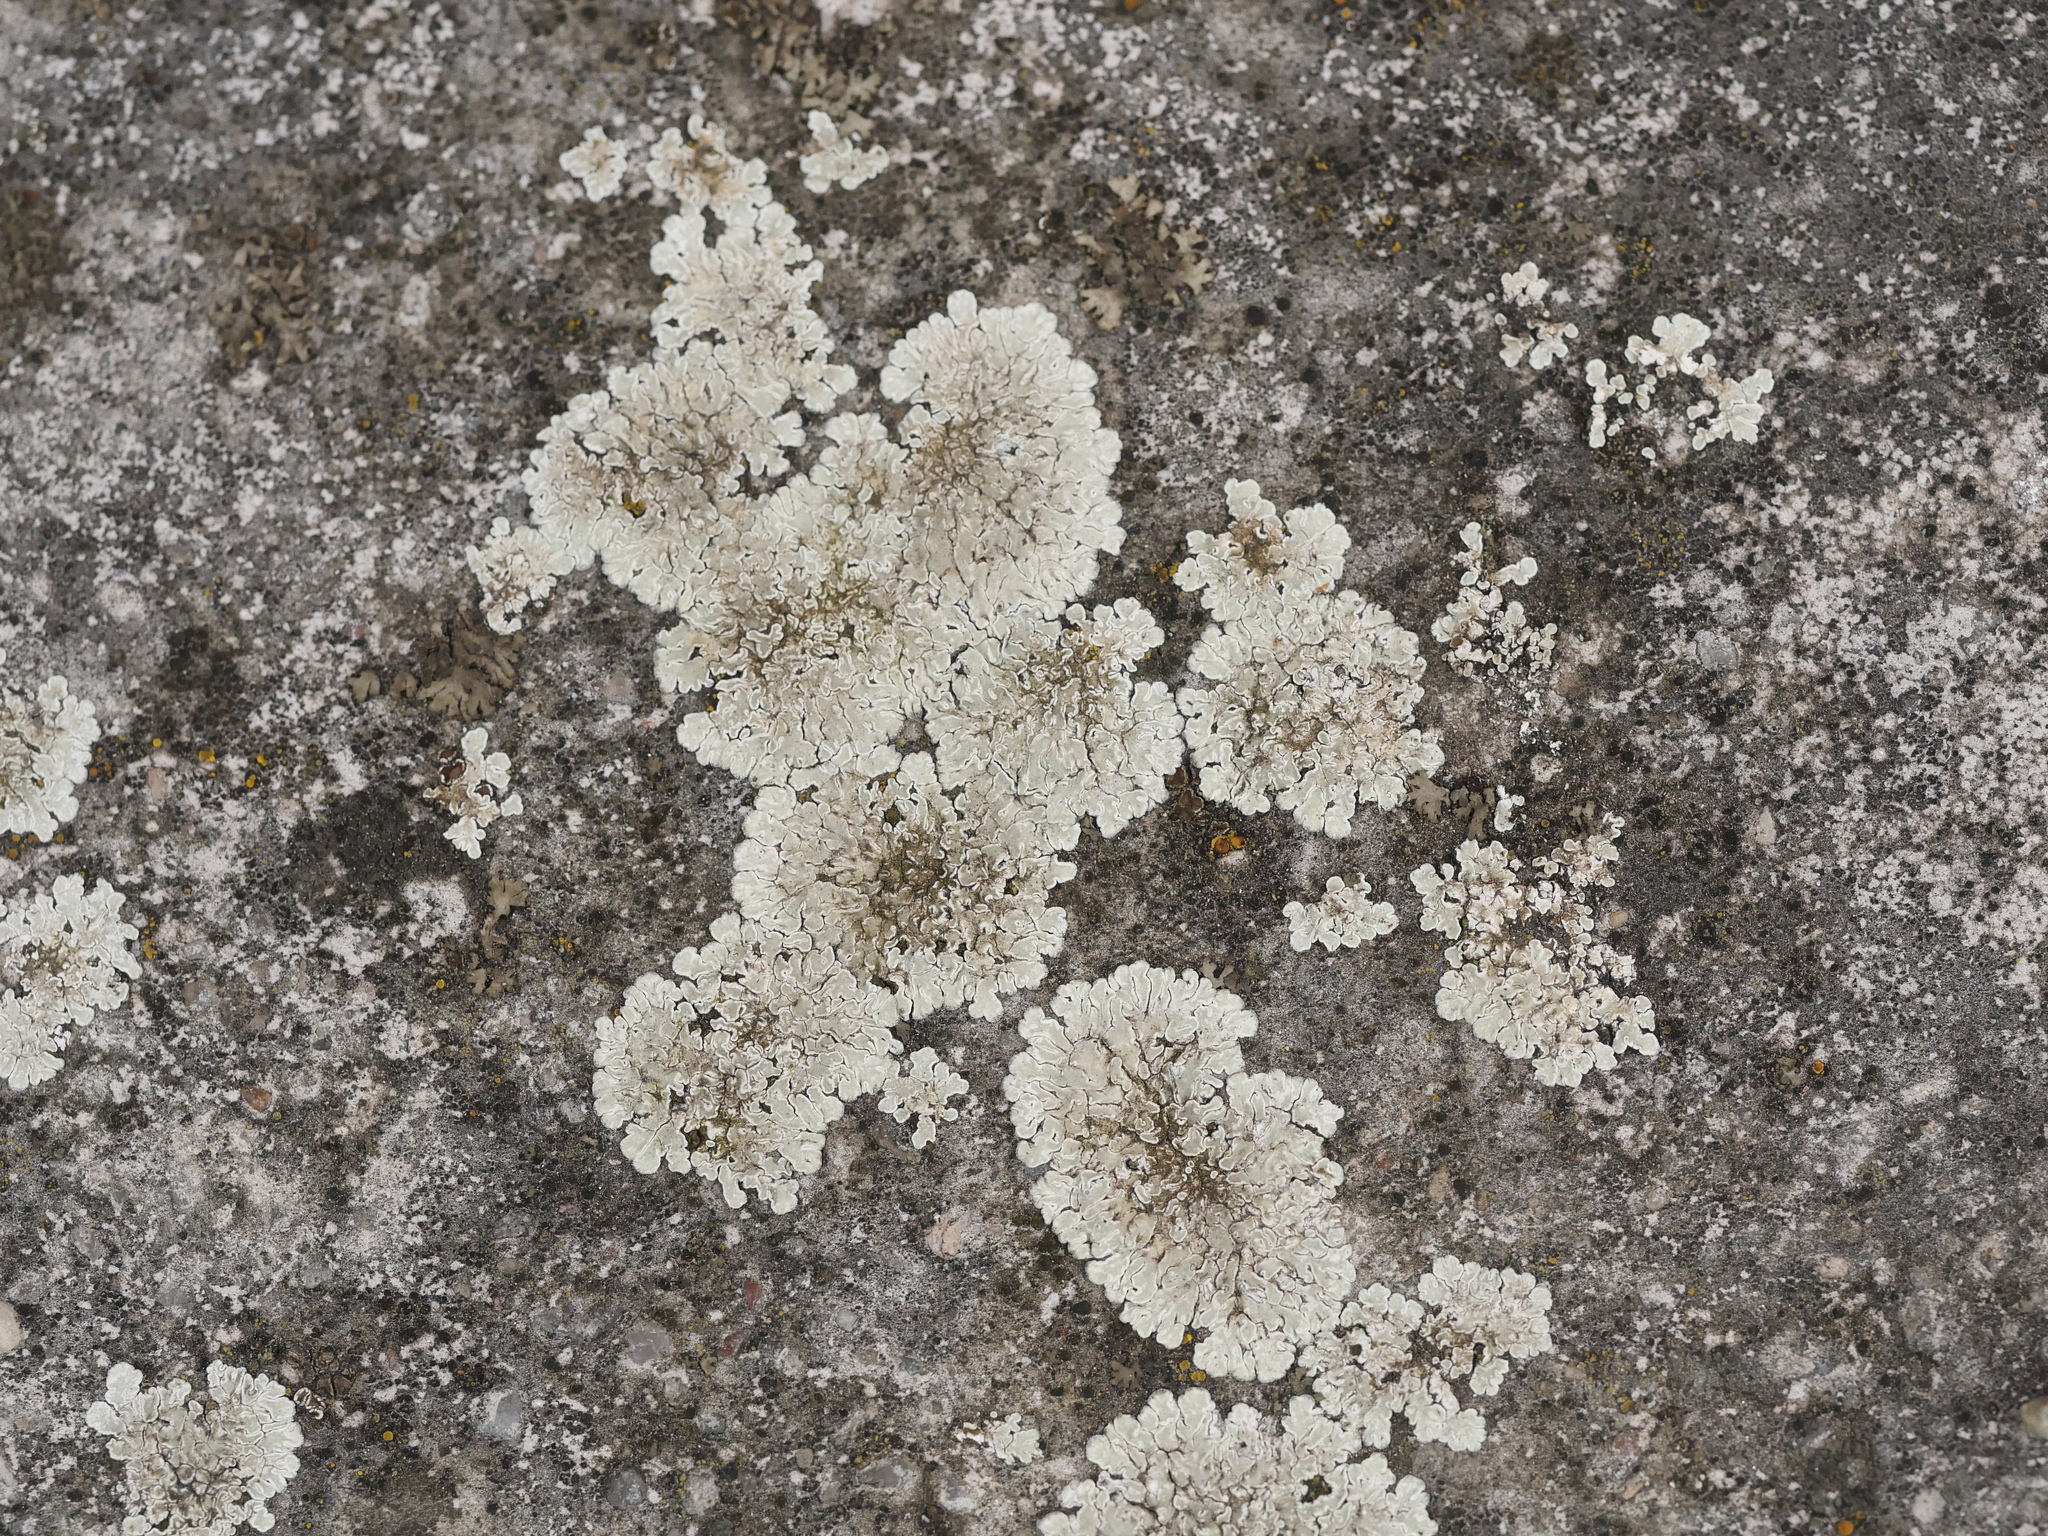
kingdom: Fungi
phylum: Ascomycota
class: Lecanoromycetes
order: Lecanorales
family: Lecanoraceae
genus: Protoparmeliopsis
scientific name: Protoparmeliopsis muralis
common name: Stonewall rim lichen
